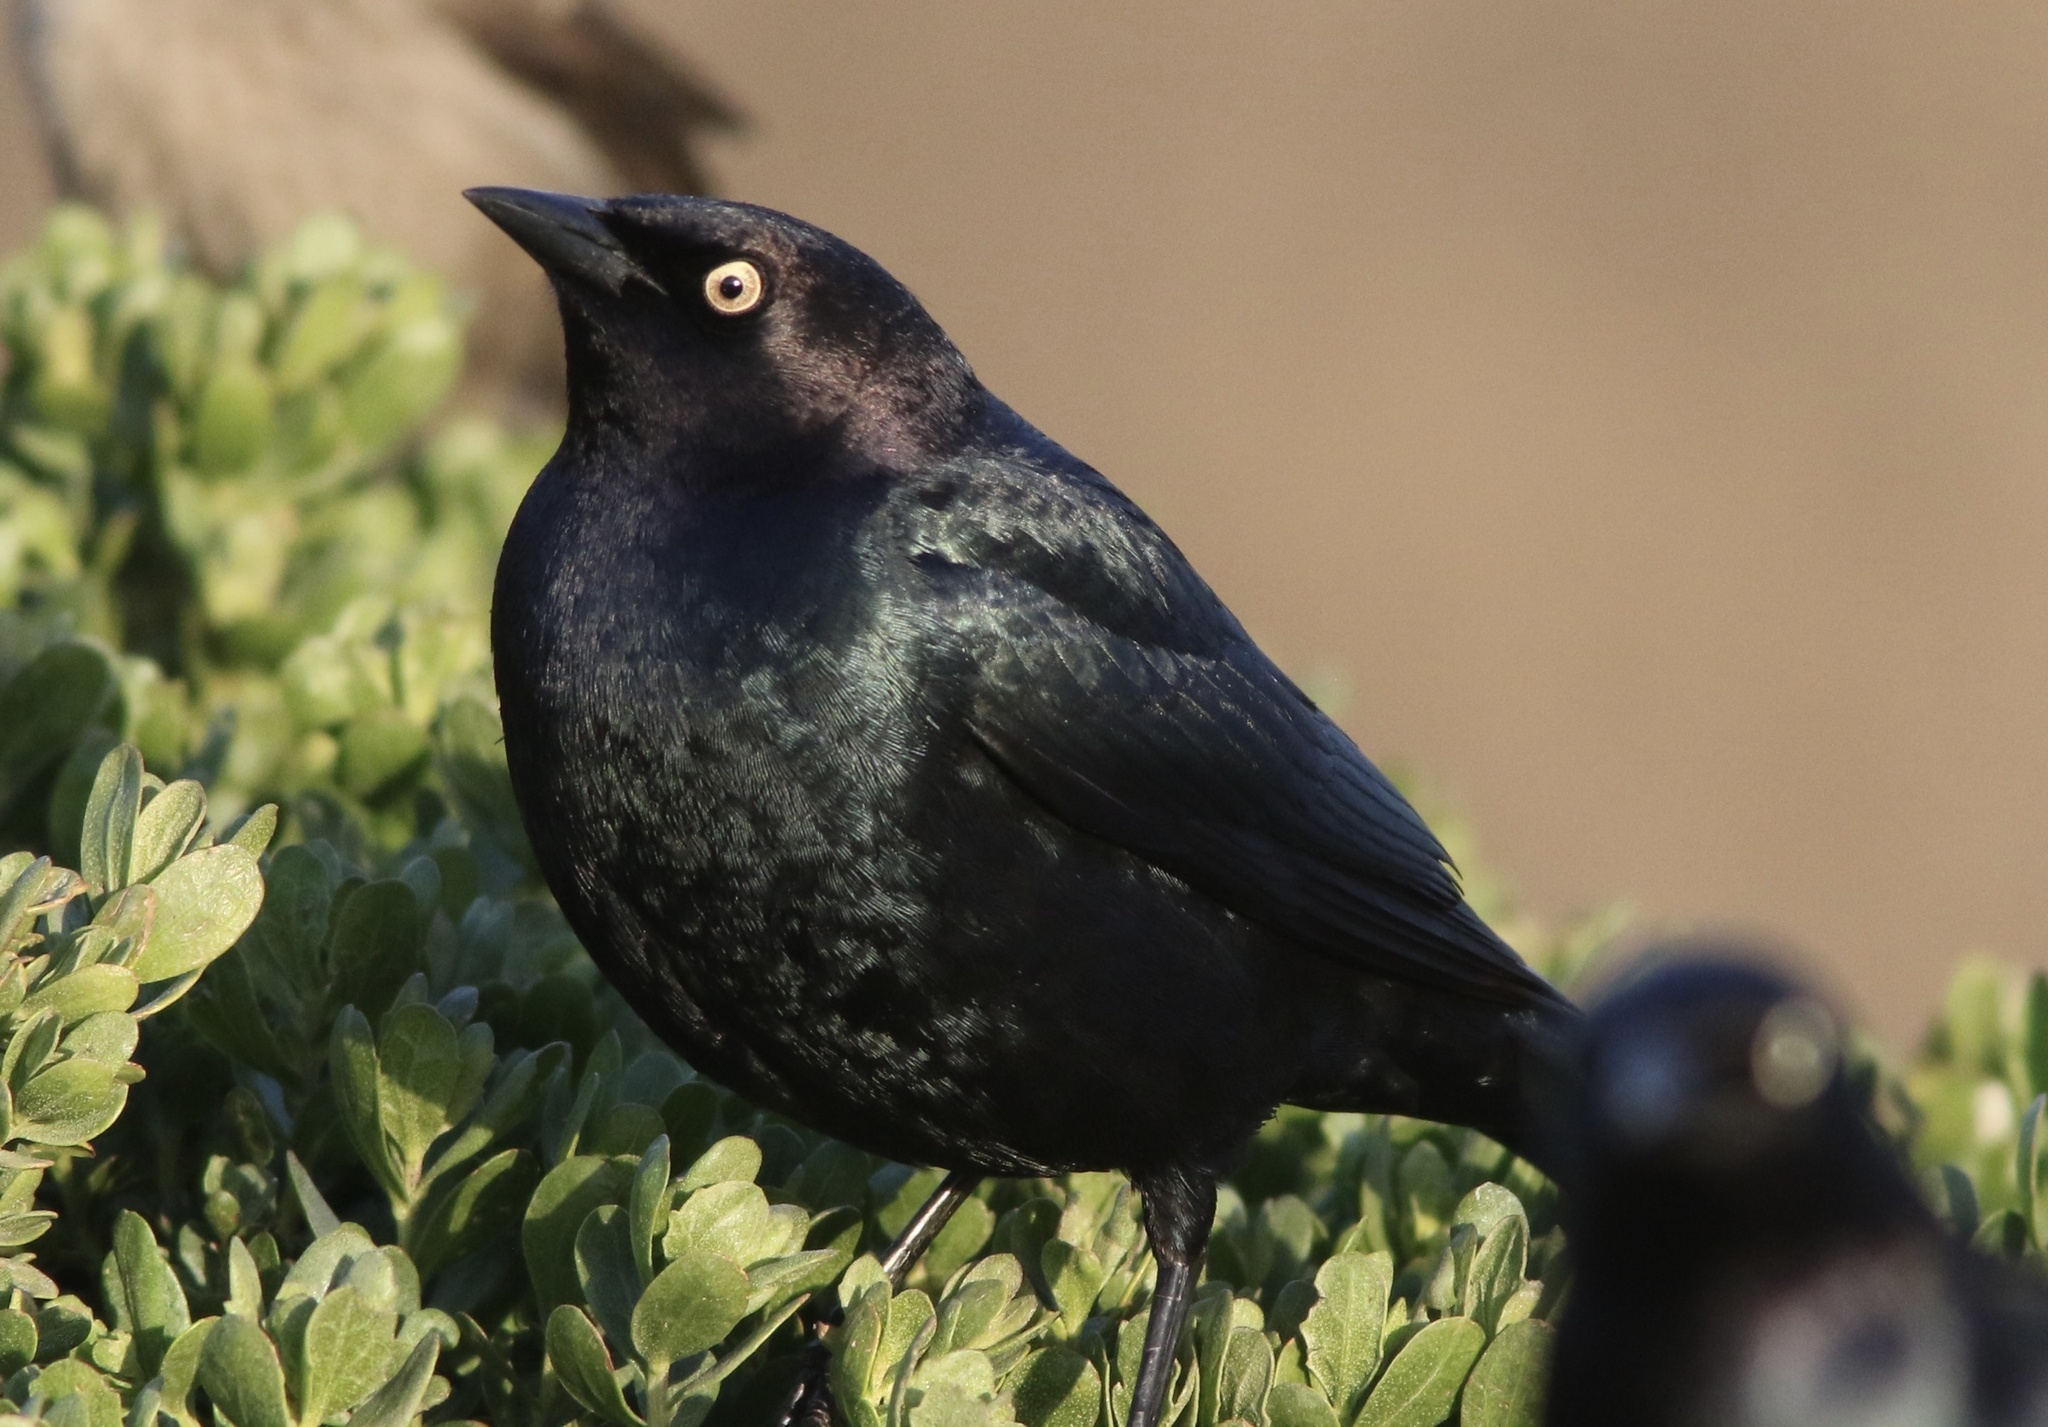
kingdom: Animalia
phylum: Chordata
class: Aves
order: Passeriformes
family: Icteridae
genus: Euphagus
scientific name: Euphagus cyanocephalus
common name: Brewer's blackbird
